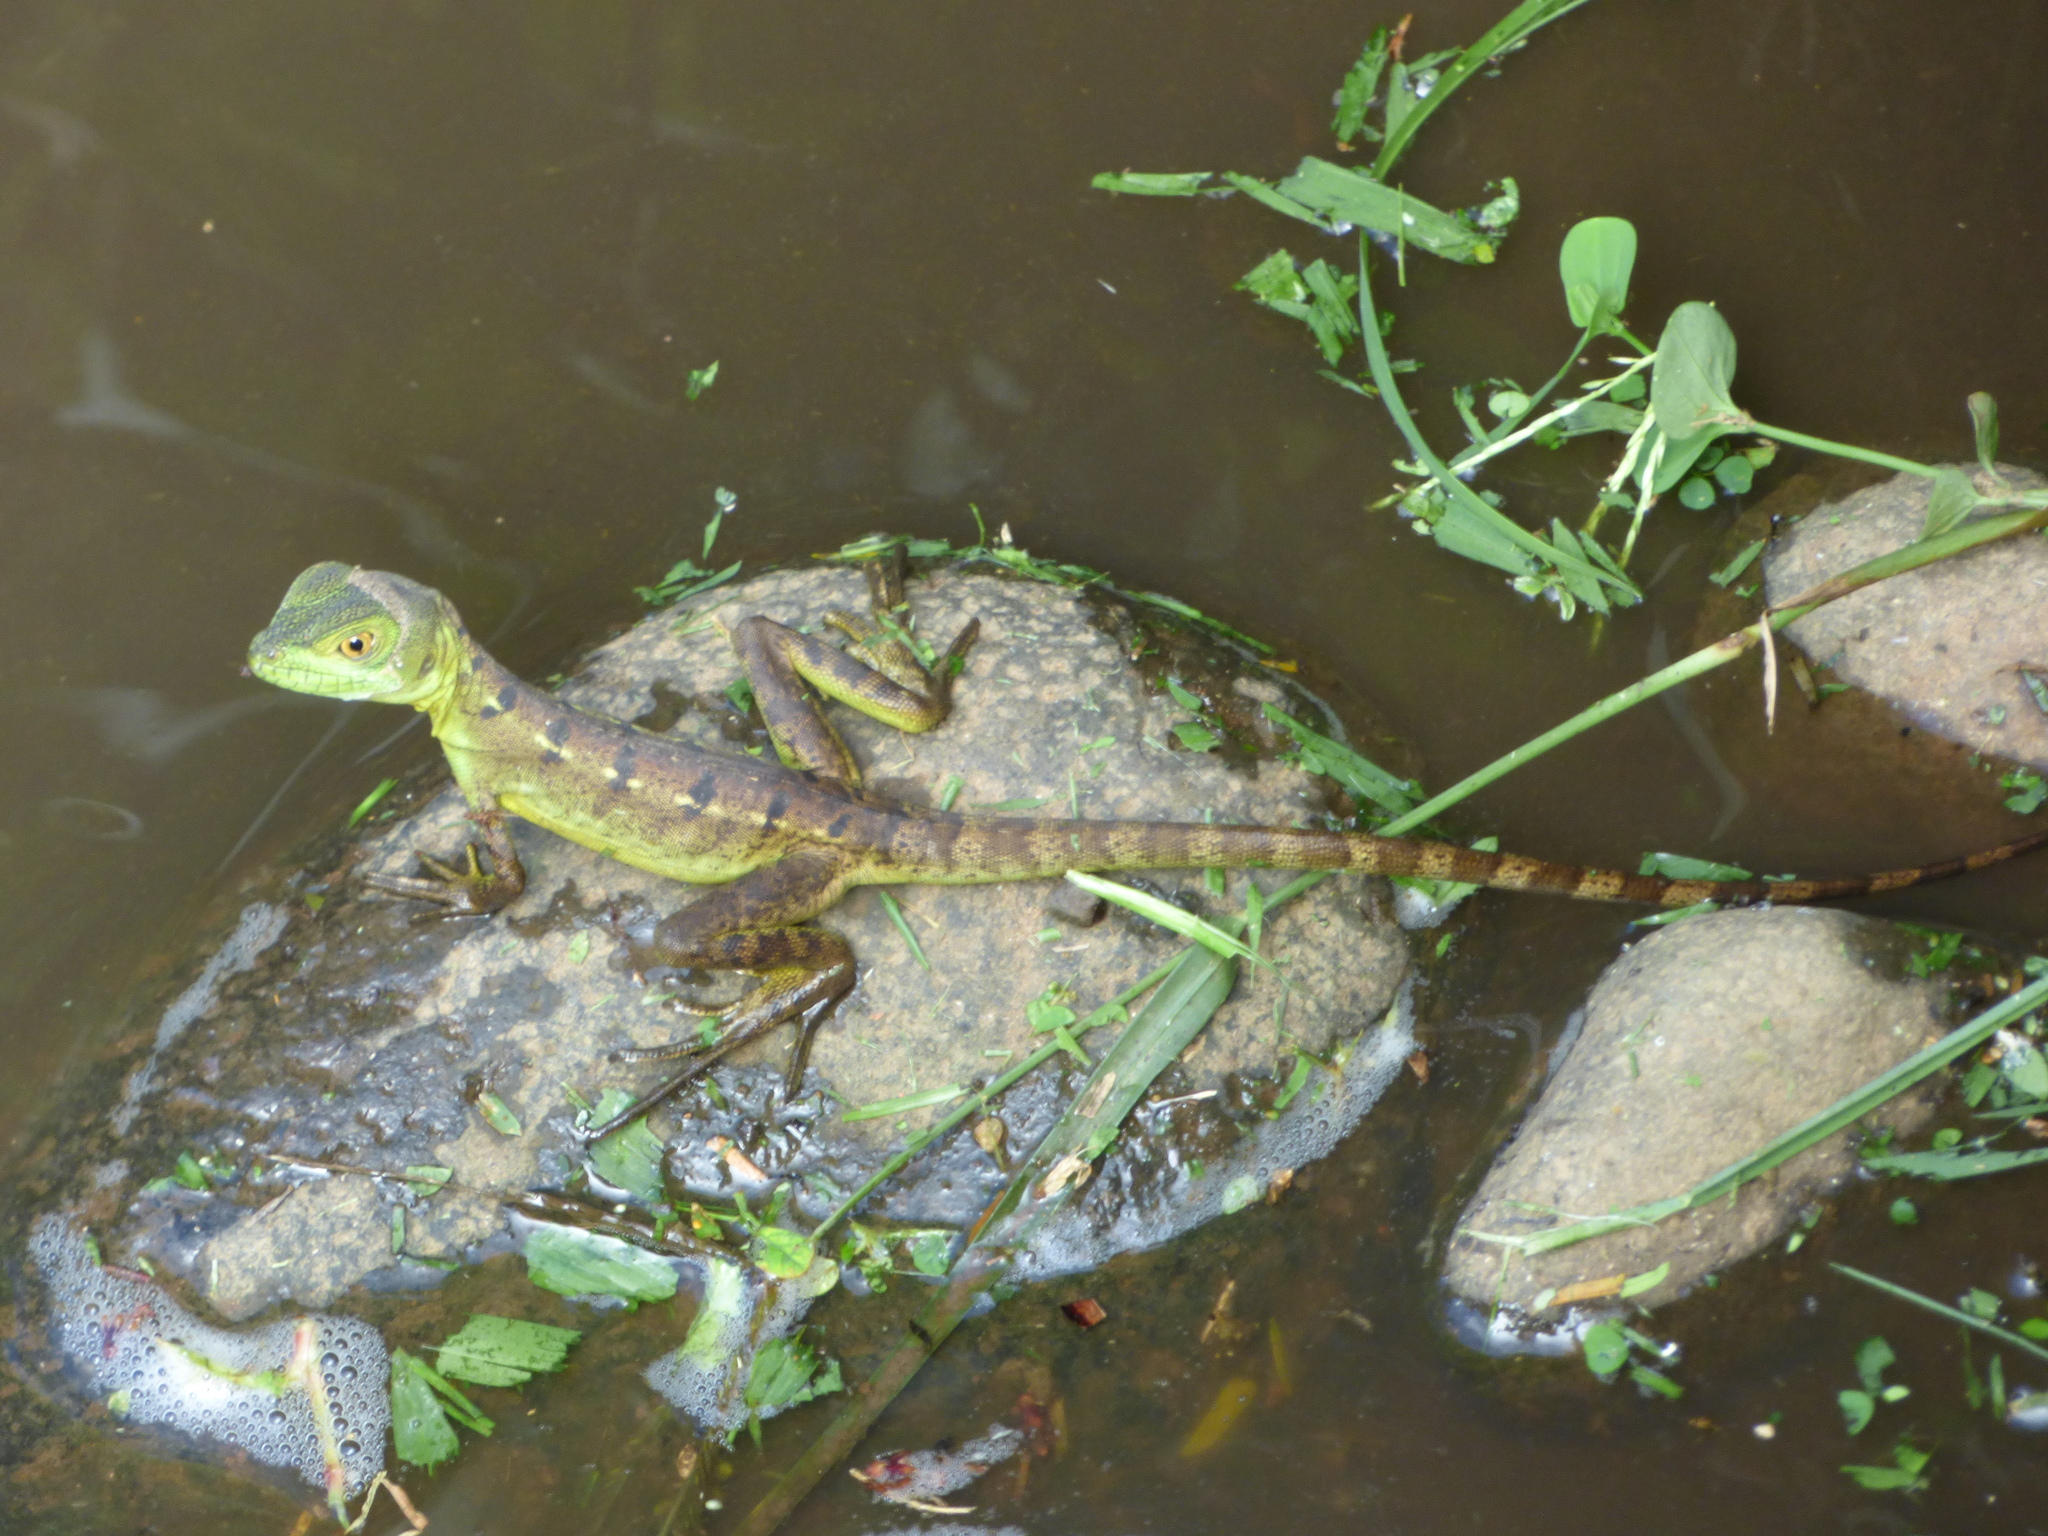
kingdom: Animalia
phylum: Chordata
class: Squamata
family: Corytophanidae
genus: Basiliscus
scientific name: Basiliscus plumifrons
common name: Green basilisk
